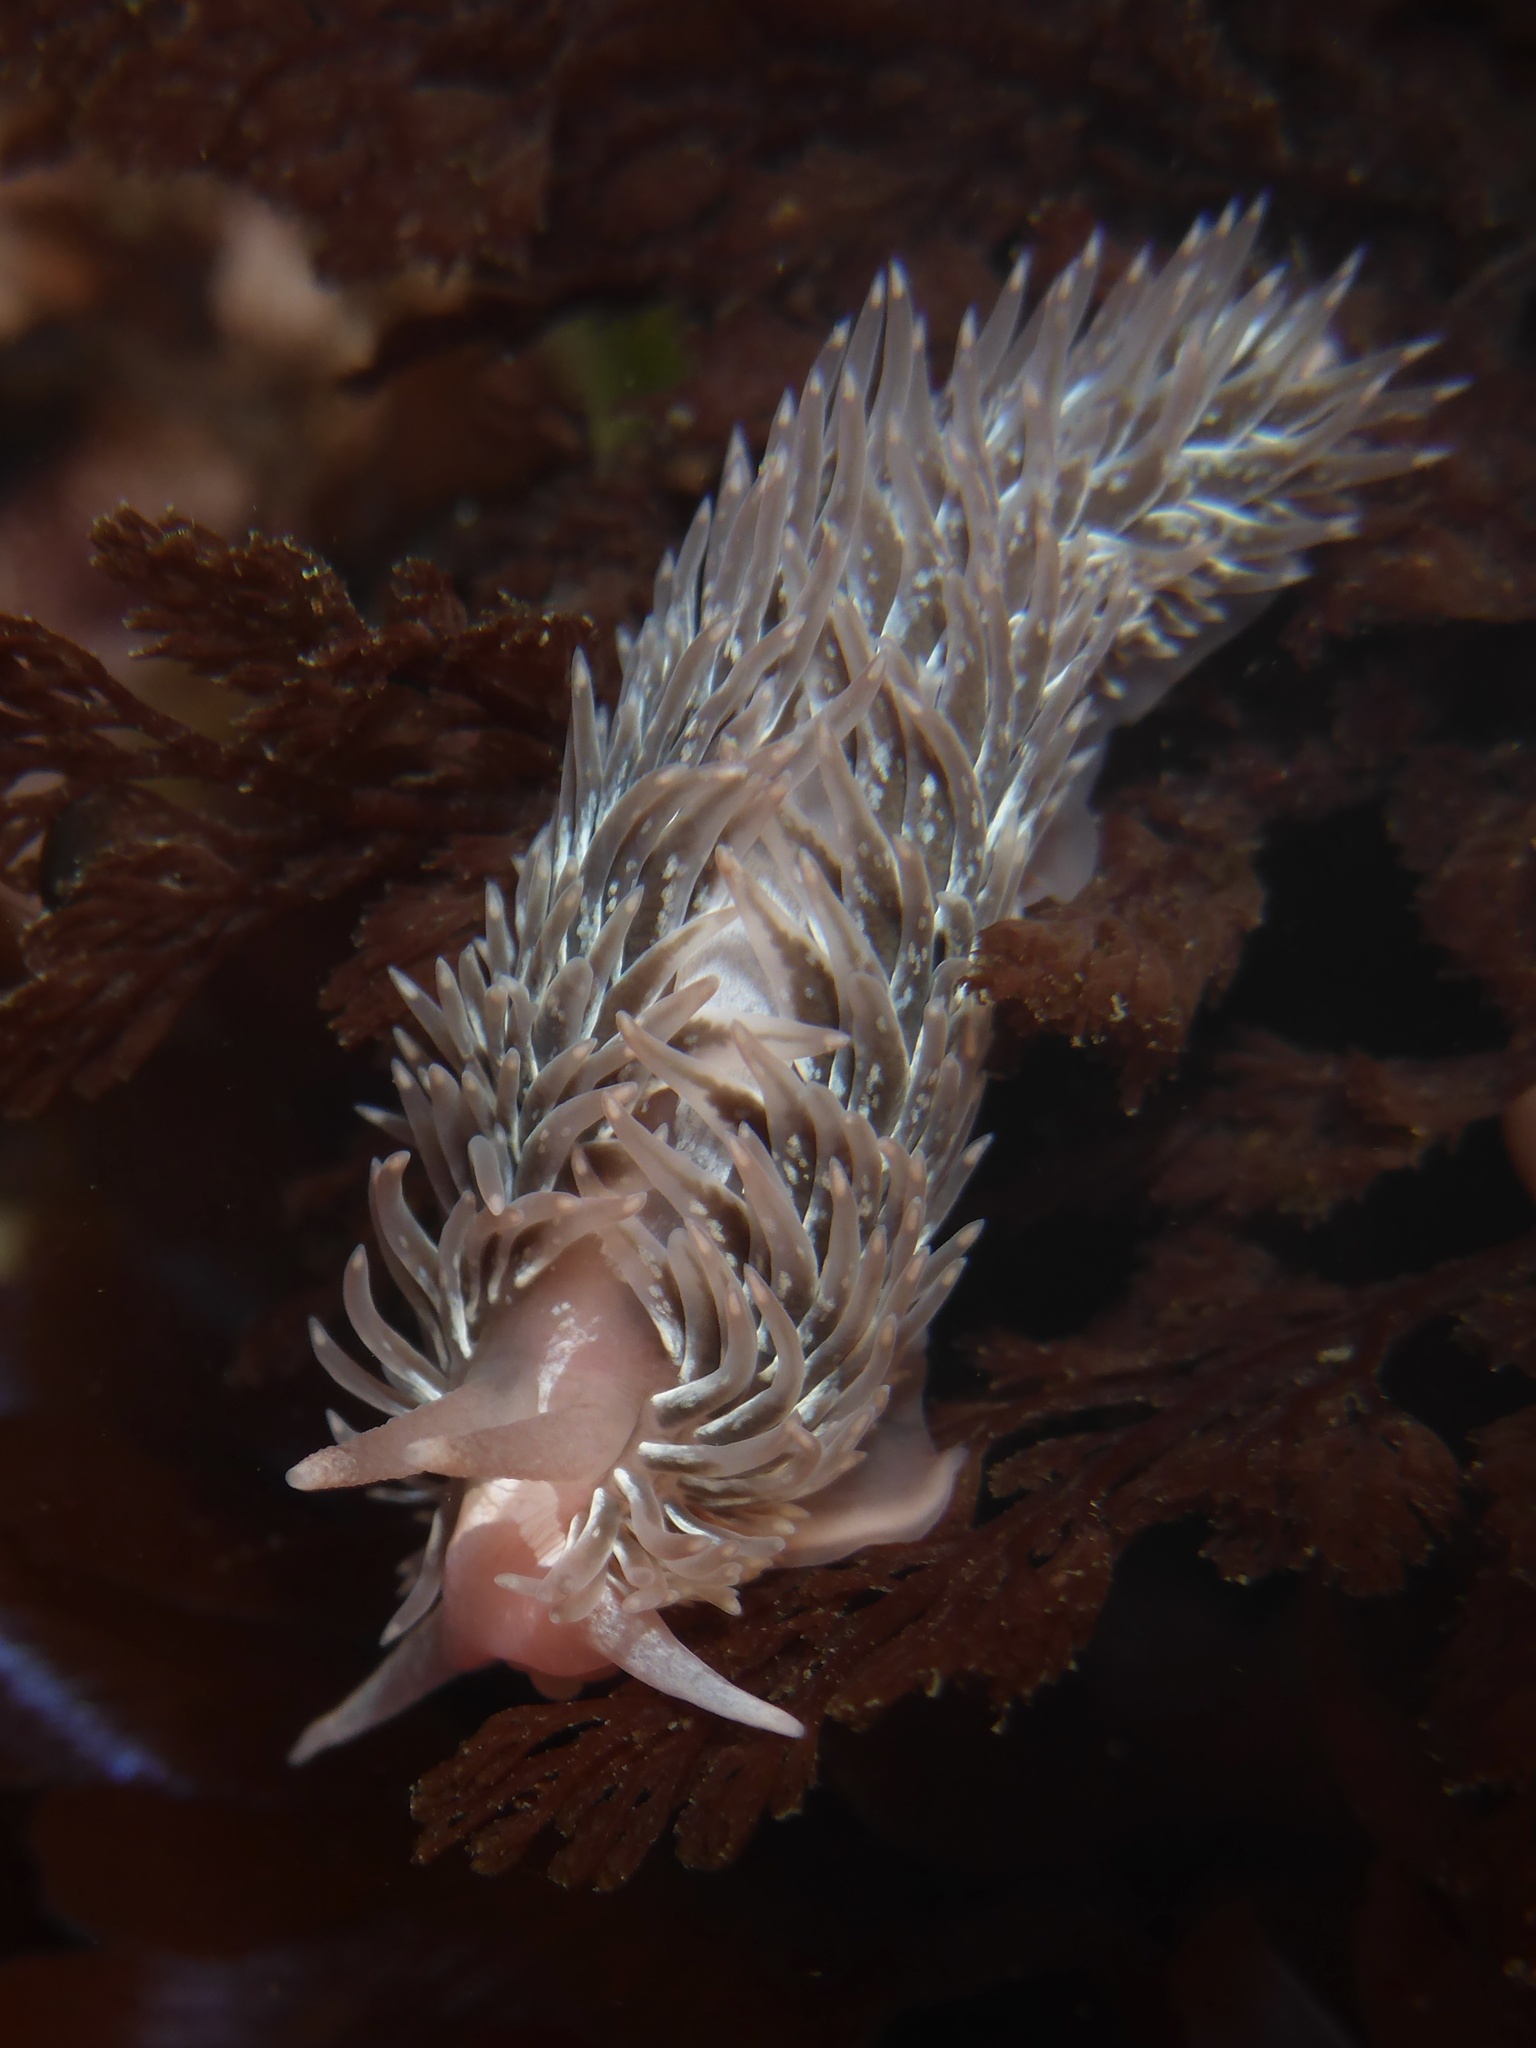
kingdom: Animalia
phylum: Mollusca
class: Gastropoda
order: Nudibranchia
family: Aeolidiidae
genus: Aeolidia
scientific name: Aeolidia loui
